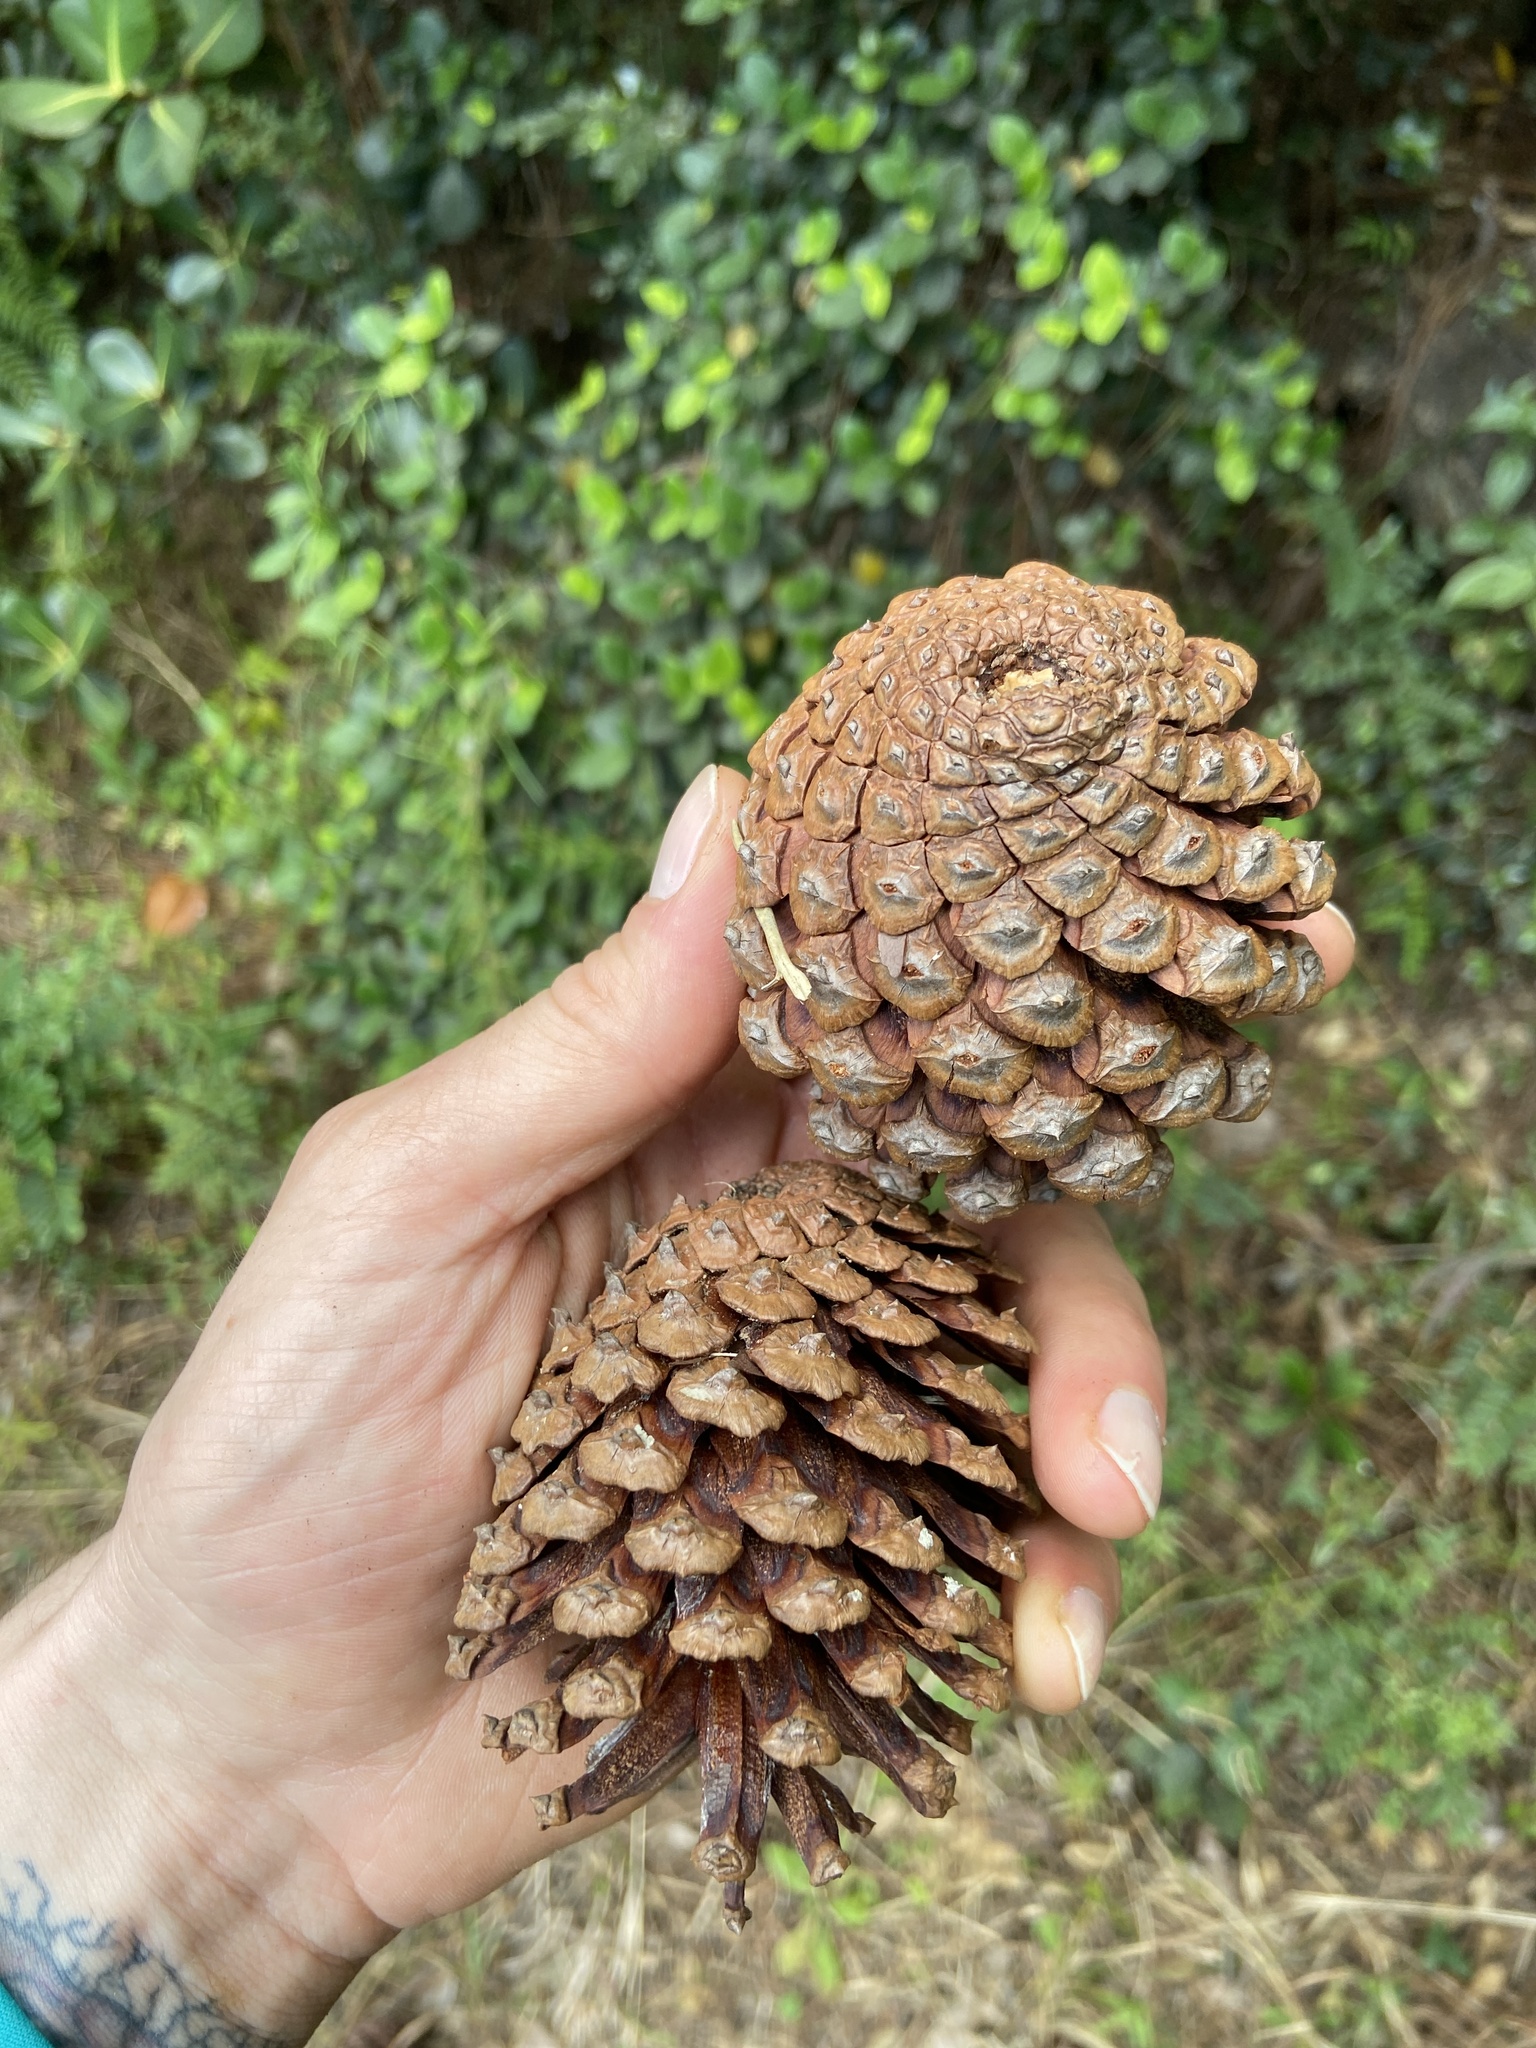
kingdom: Plantae
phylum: Tracheophyta
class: Pinopsida
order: Pinales
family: Pinaceae
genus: Pinus
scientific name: Pinus caribaea
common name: Caribbean pine
